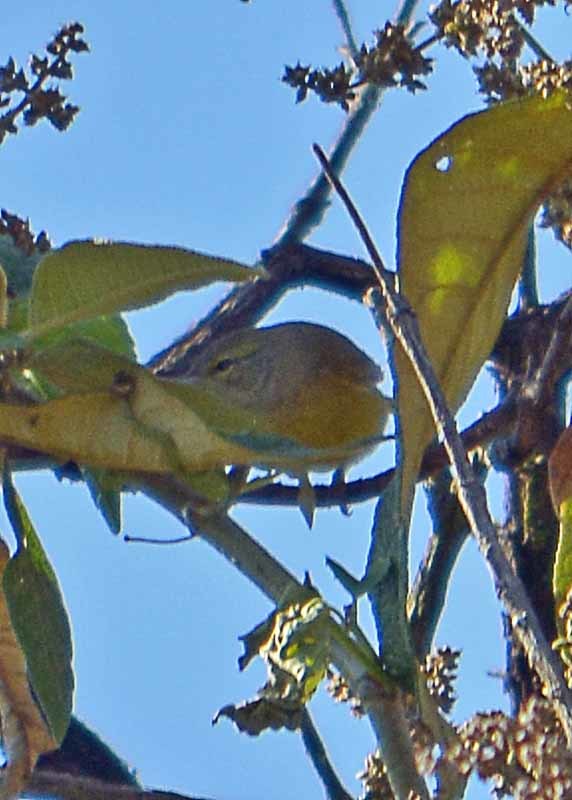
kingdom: Animalia
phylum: Chordata
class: Aves
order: Passeriformes
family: Parulidae
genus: Leiothlypis
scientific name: Leiothlypis celata
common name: Orange-crowned warbler
